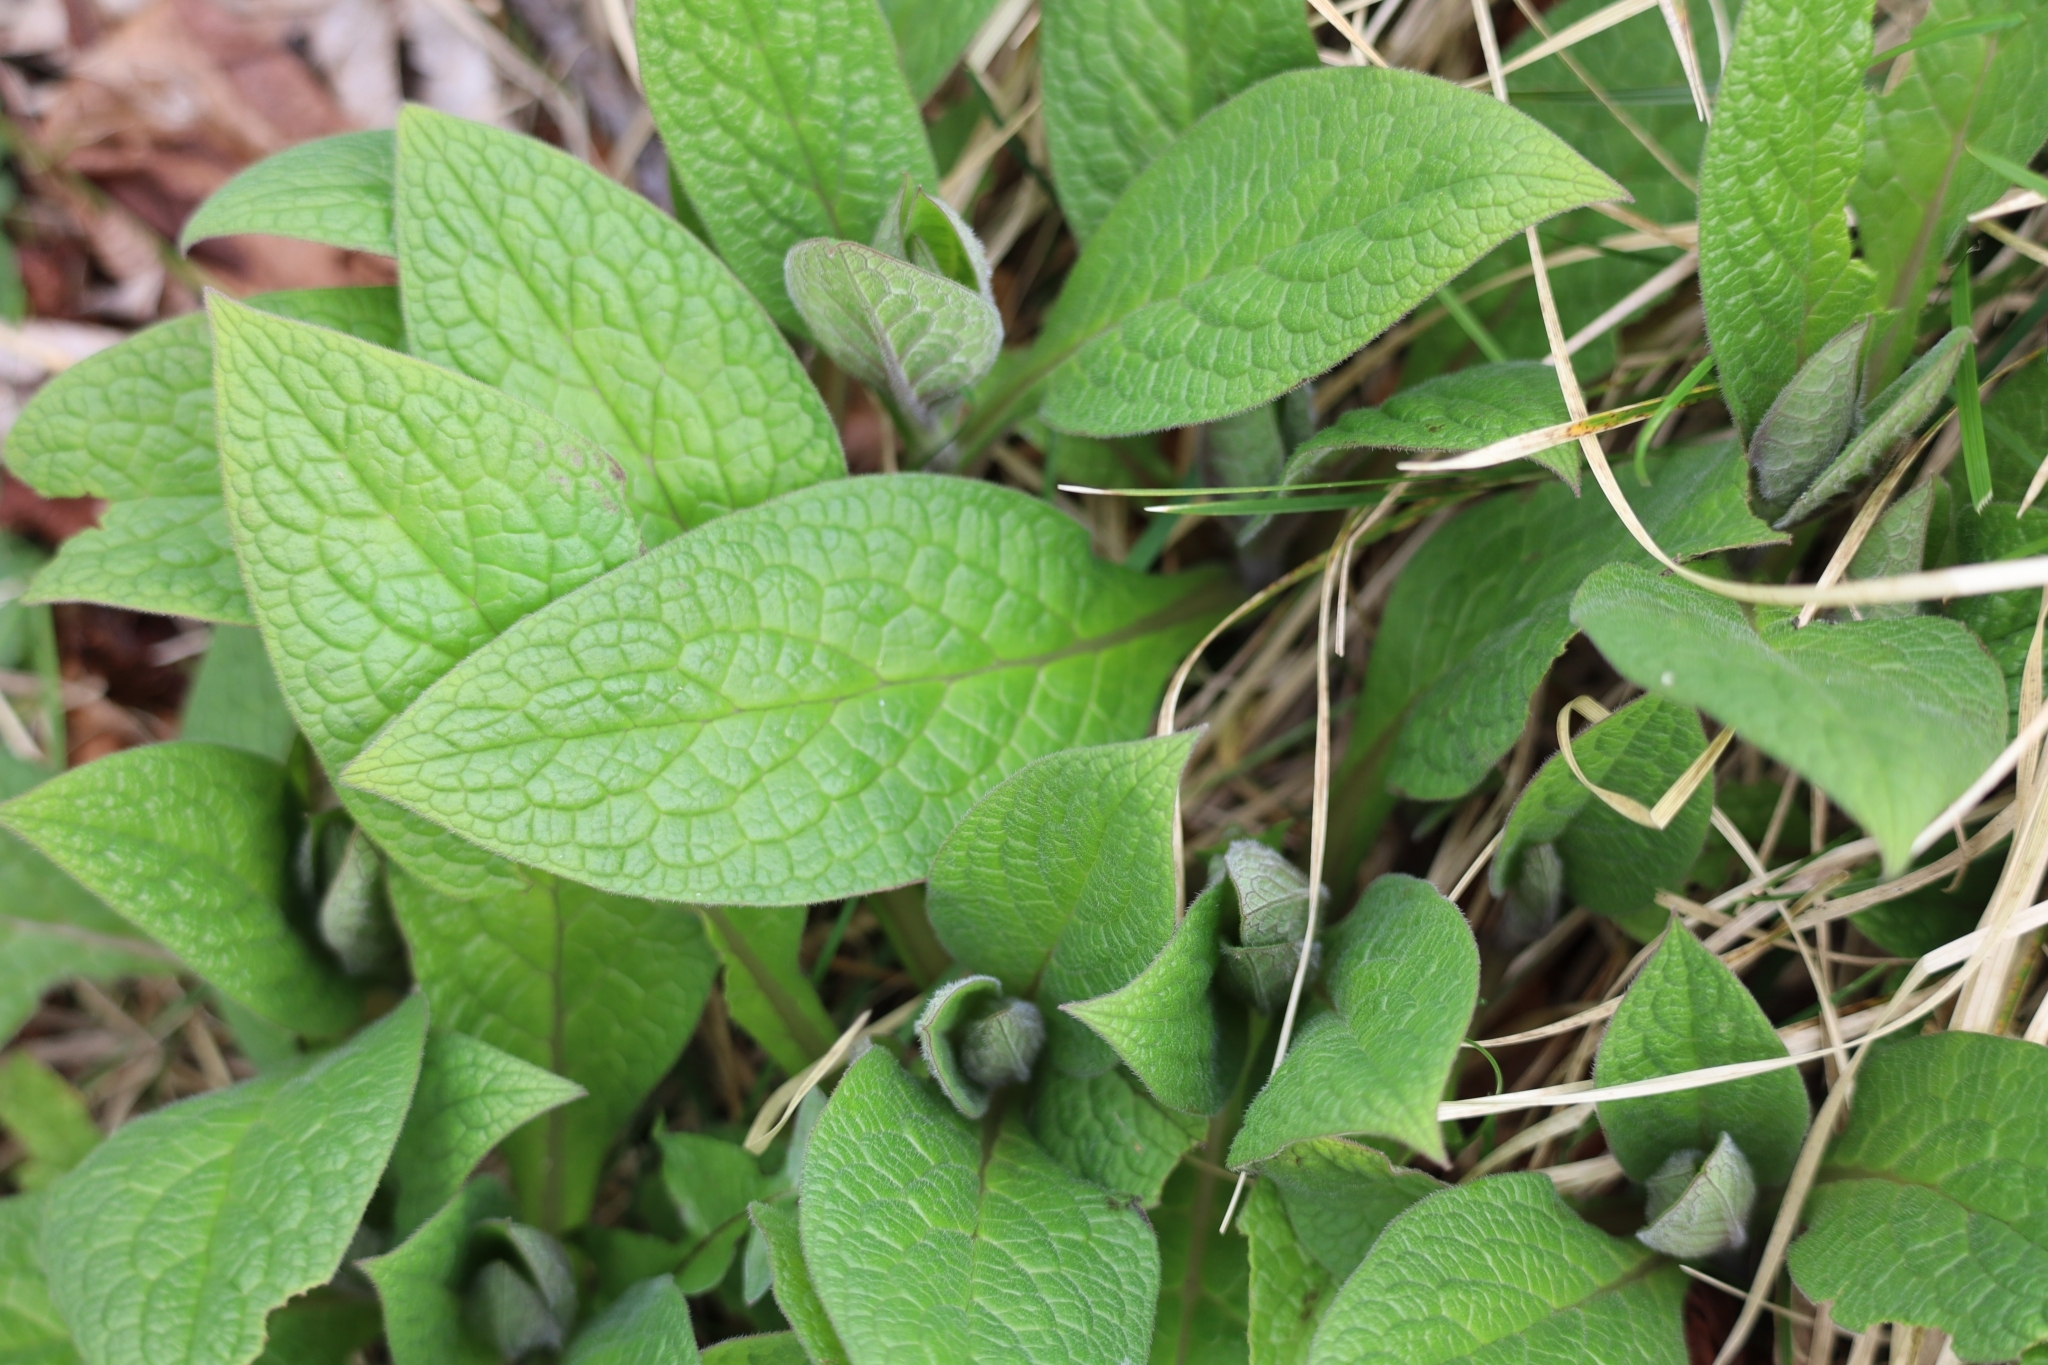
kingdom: Plantae
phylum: Tracheophyta
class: Magnoliopsida
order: Boraginales
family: Boraginaceae
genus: Symphytum
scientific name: Symphytum tuberosum
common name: Tuberous comfrey
